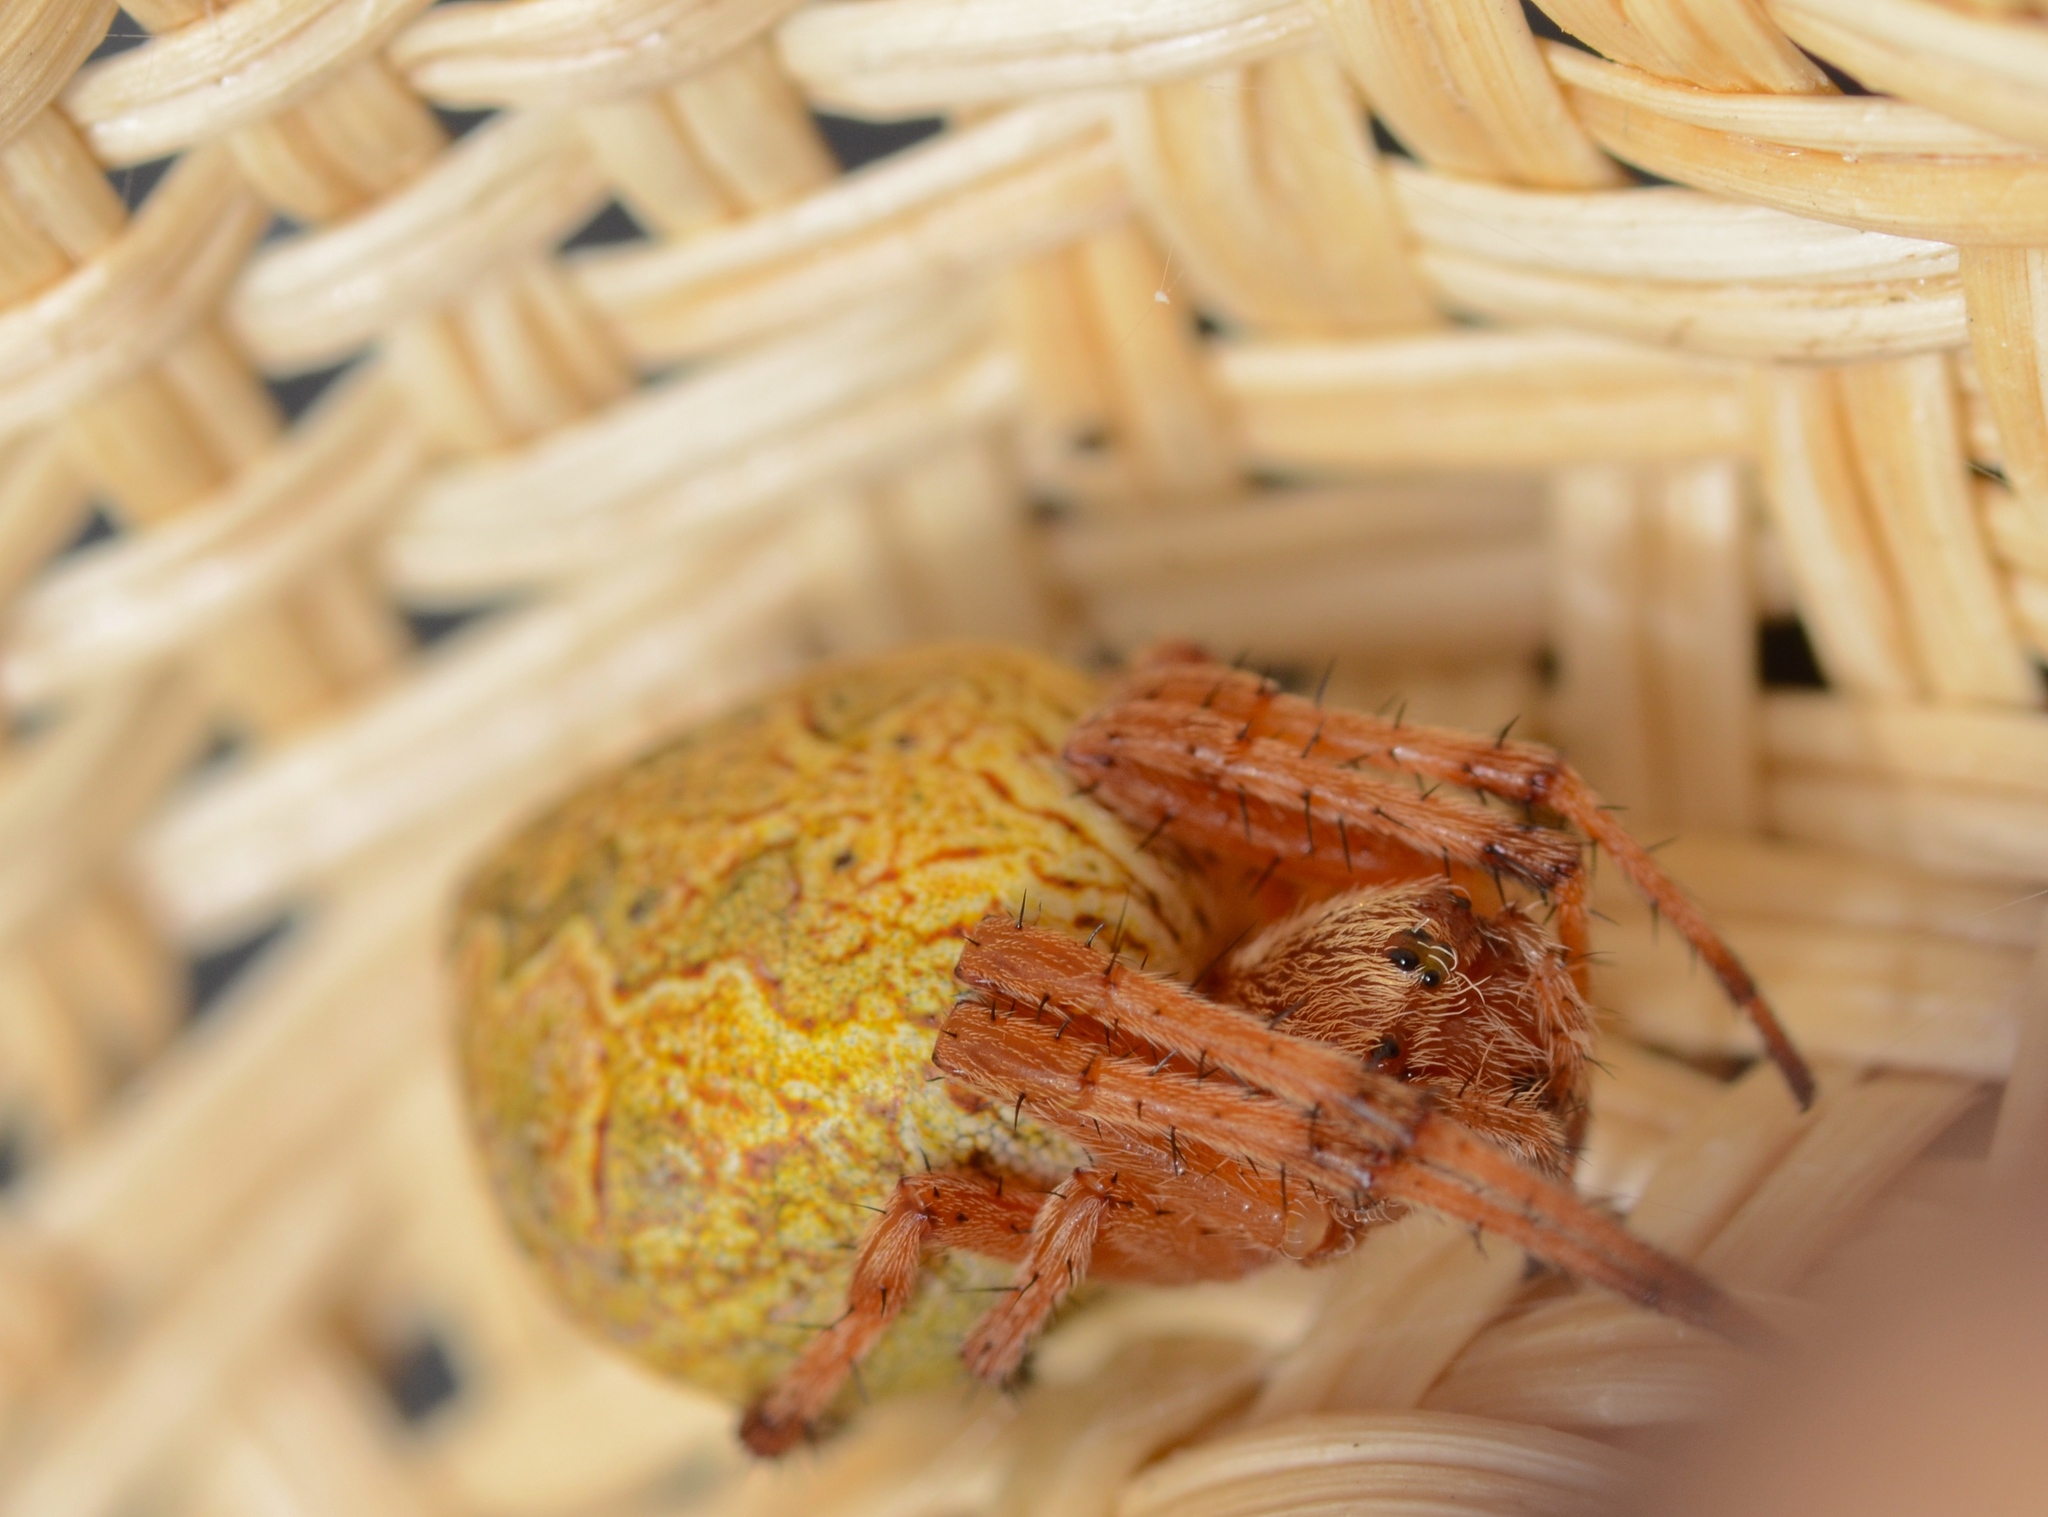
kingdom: Animalia
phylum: Arthropoda
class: Arachnida
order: Araneae
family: Araneidae
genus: Salsa
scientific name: Salsa fuliginata
